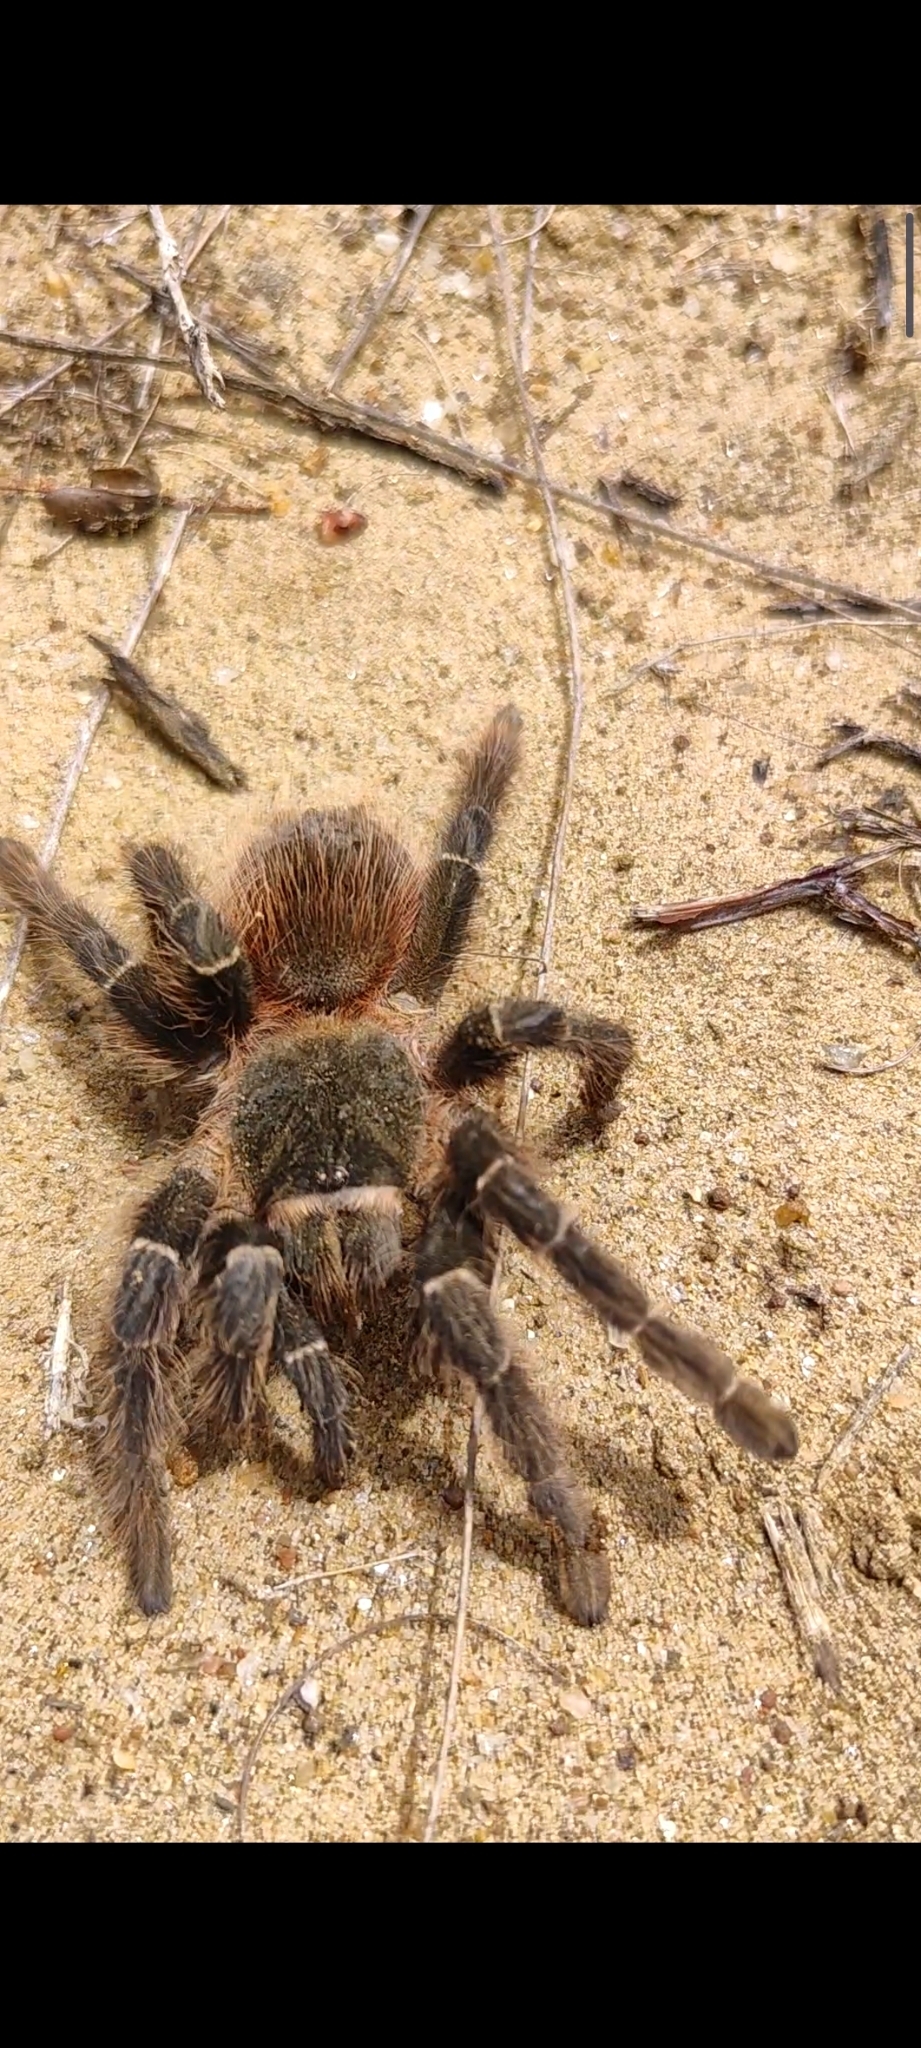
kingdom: Animalia
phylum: Arthropoda
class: Arachnida
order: Araneae
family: Theraphosidae
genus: Lasiodora
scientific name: Lasiodora parahybana
